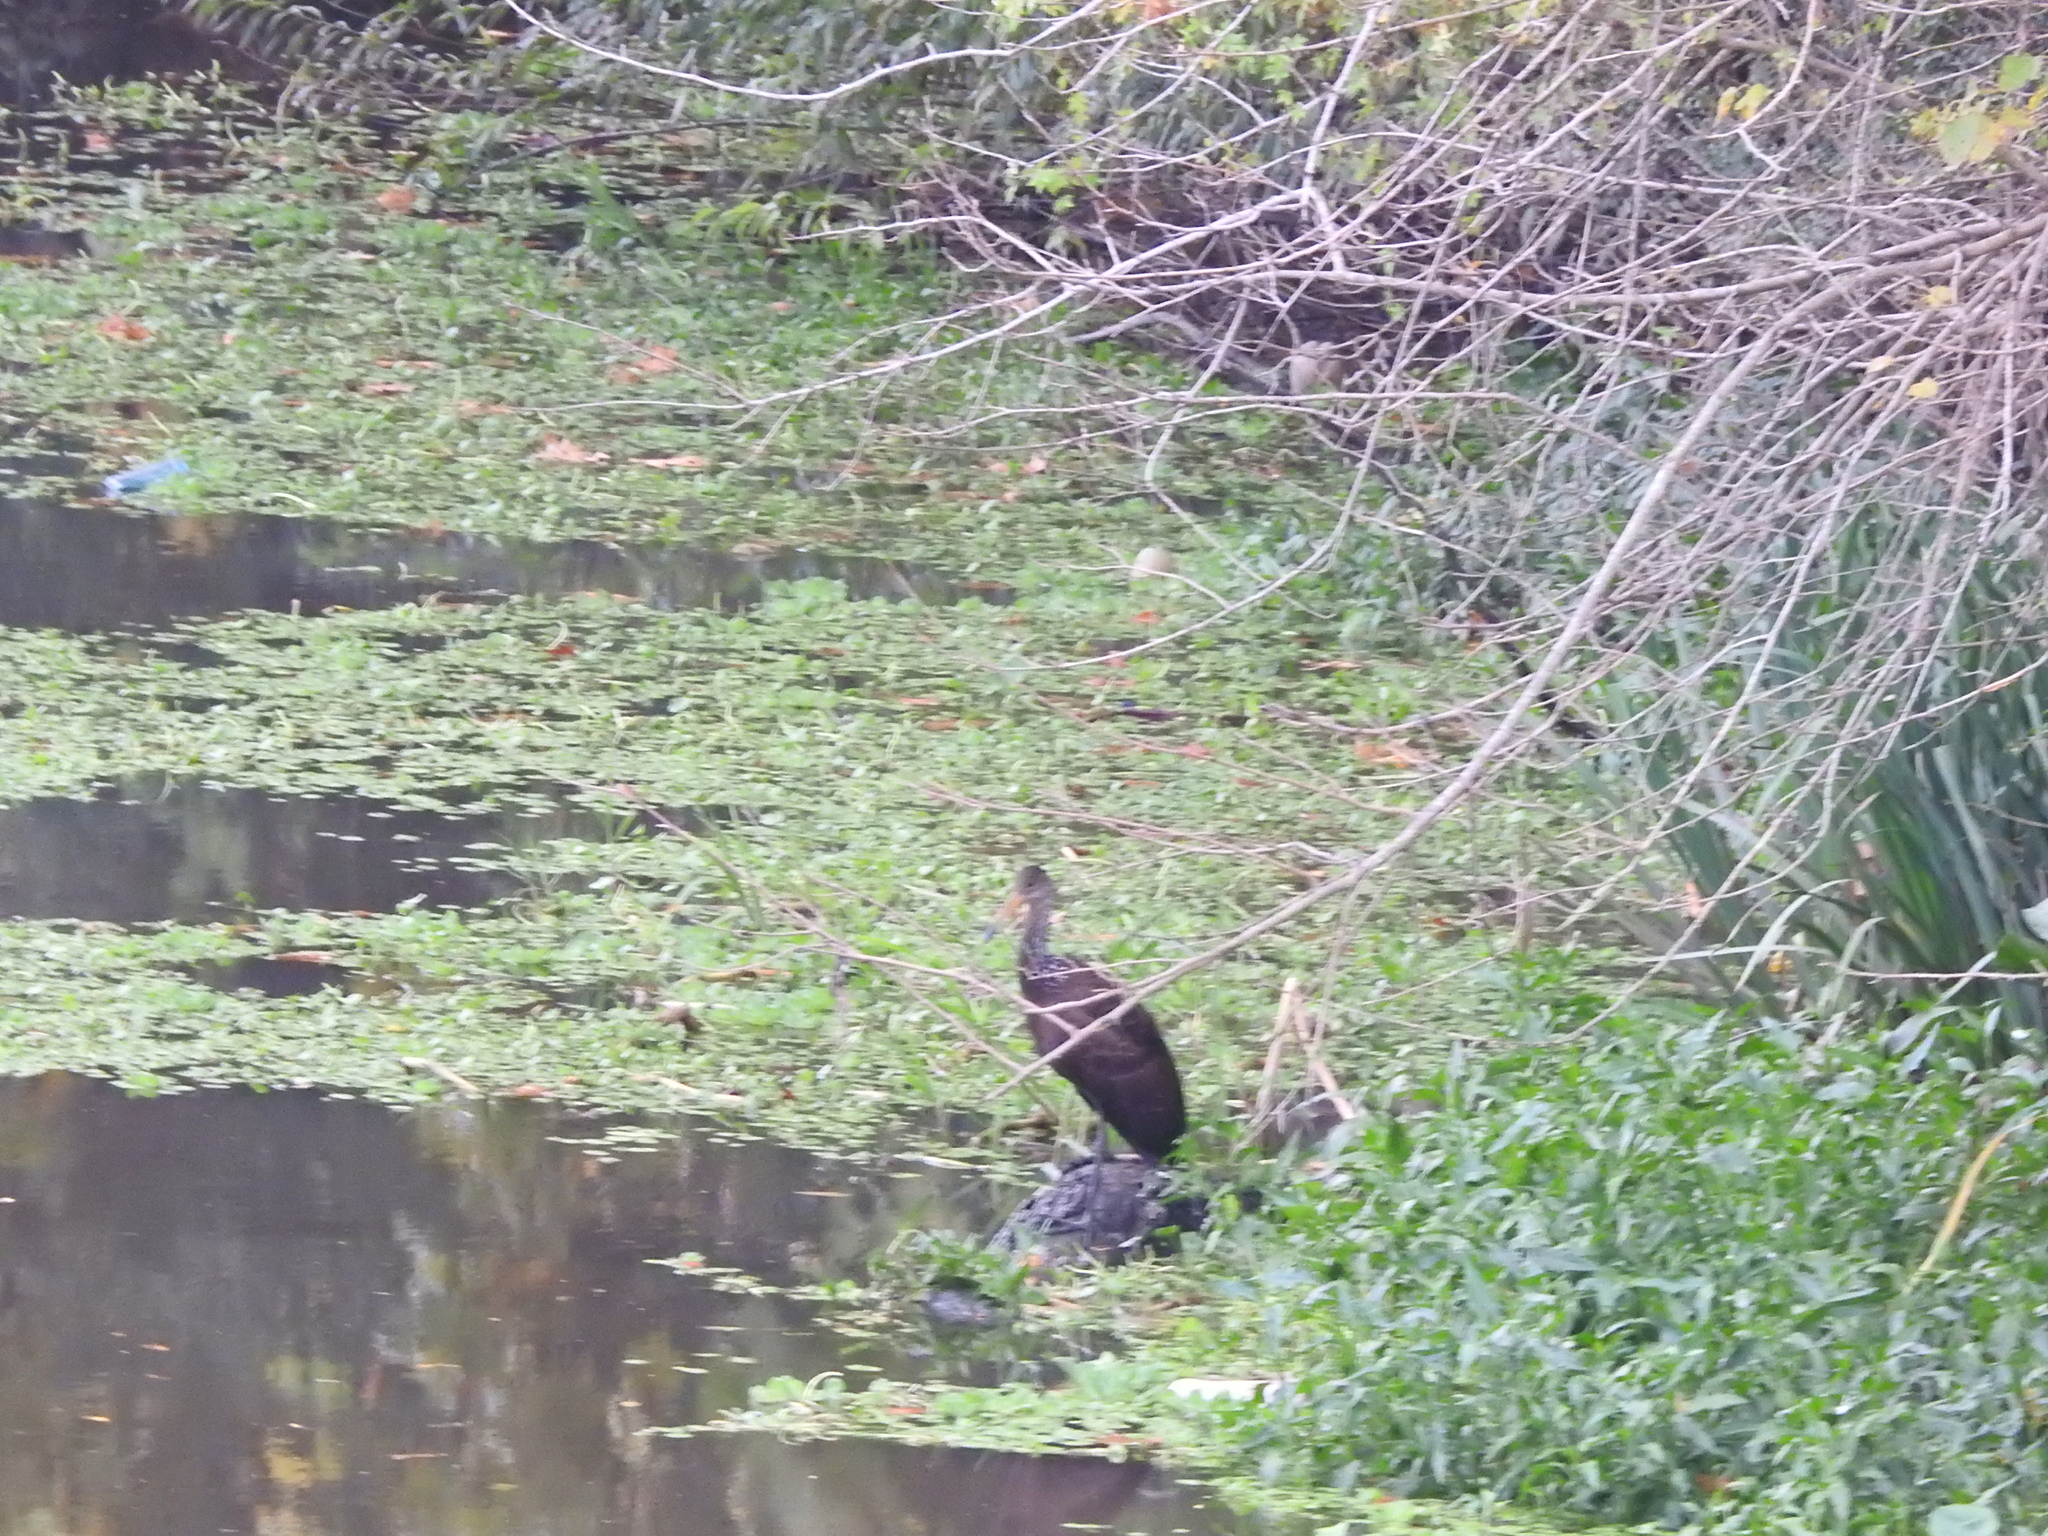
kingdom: Animalia
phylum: Chordata
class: Aves
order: Gruiformes
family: Aramidae
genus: Aramus
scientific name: Aramus guarauna
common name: Limpkin
